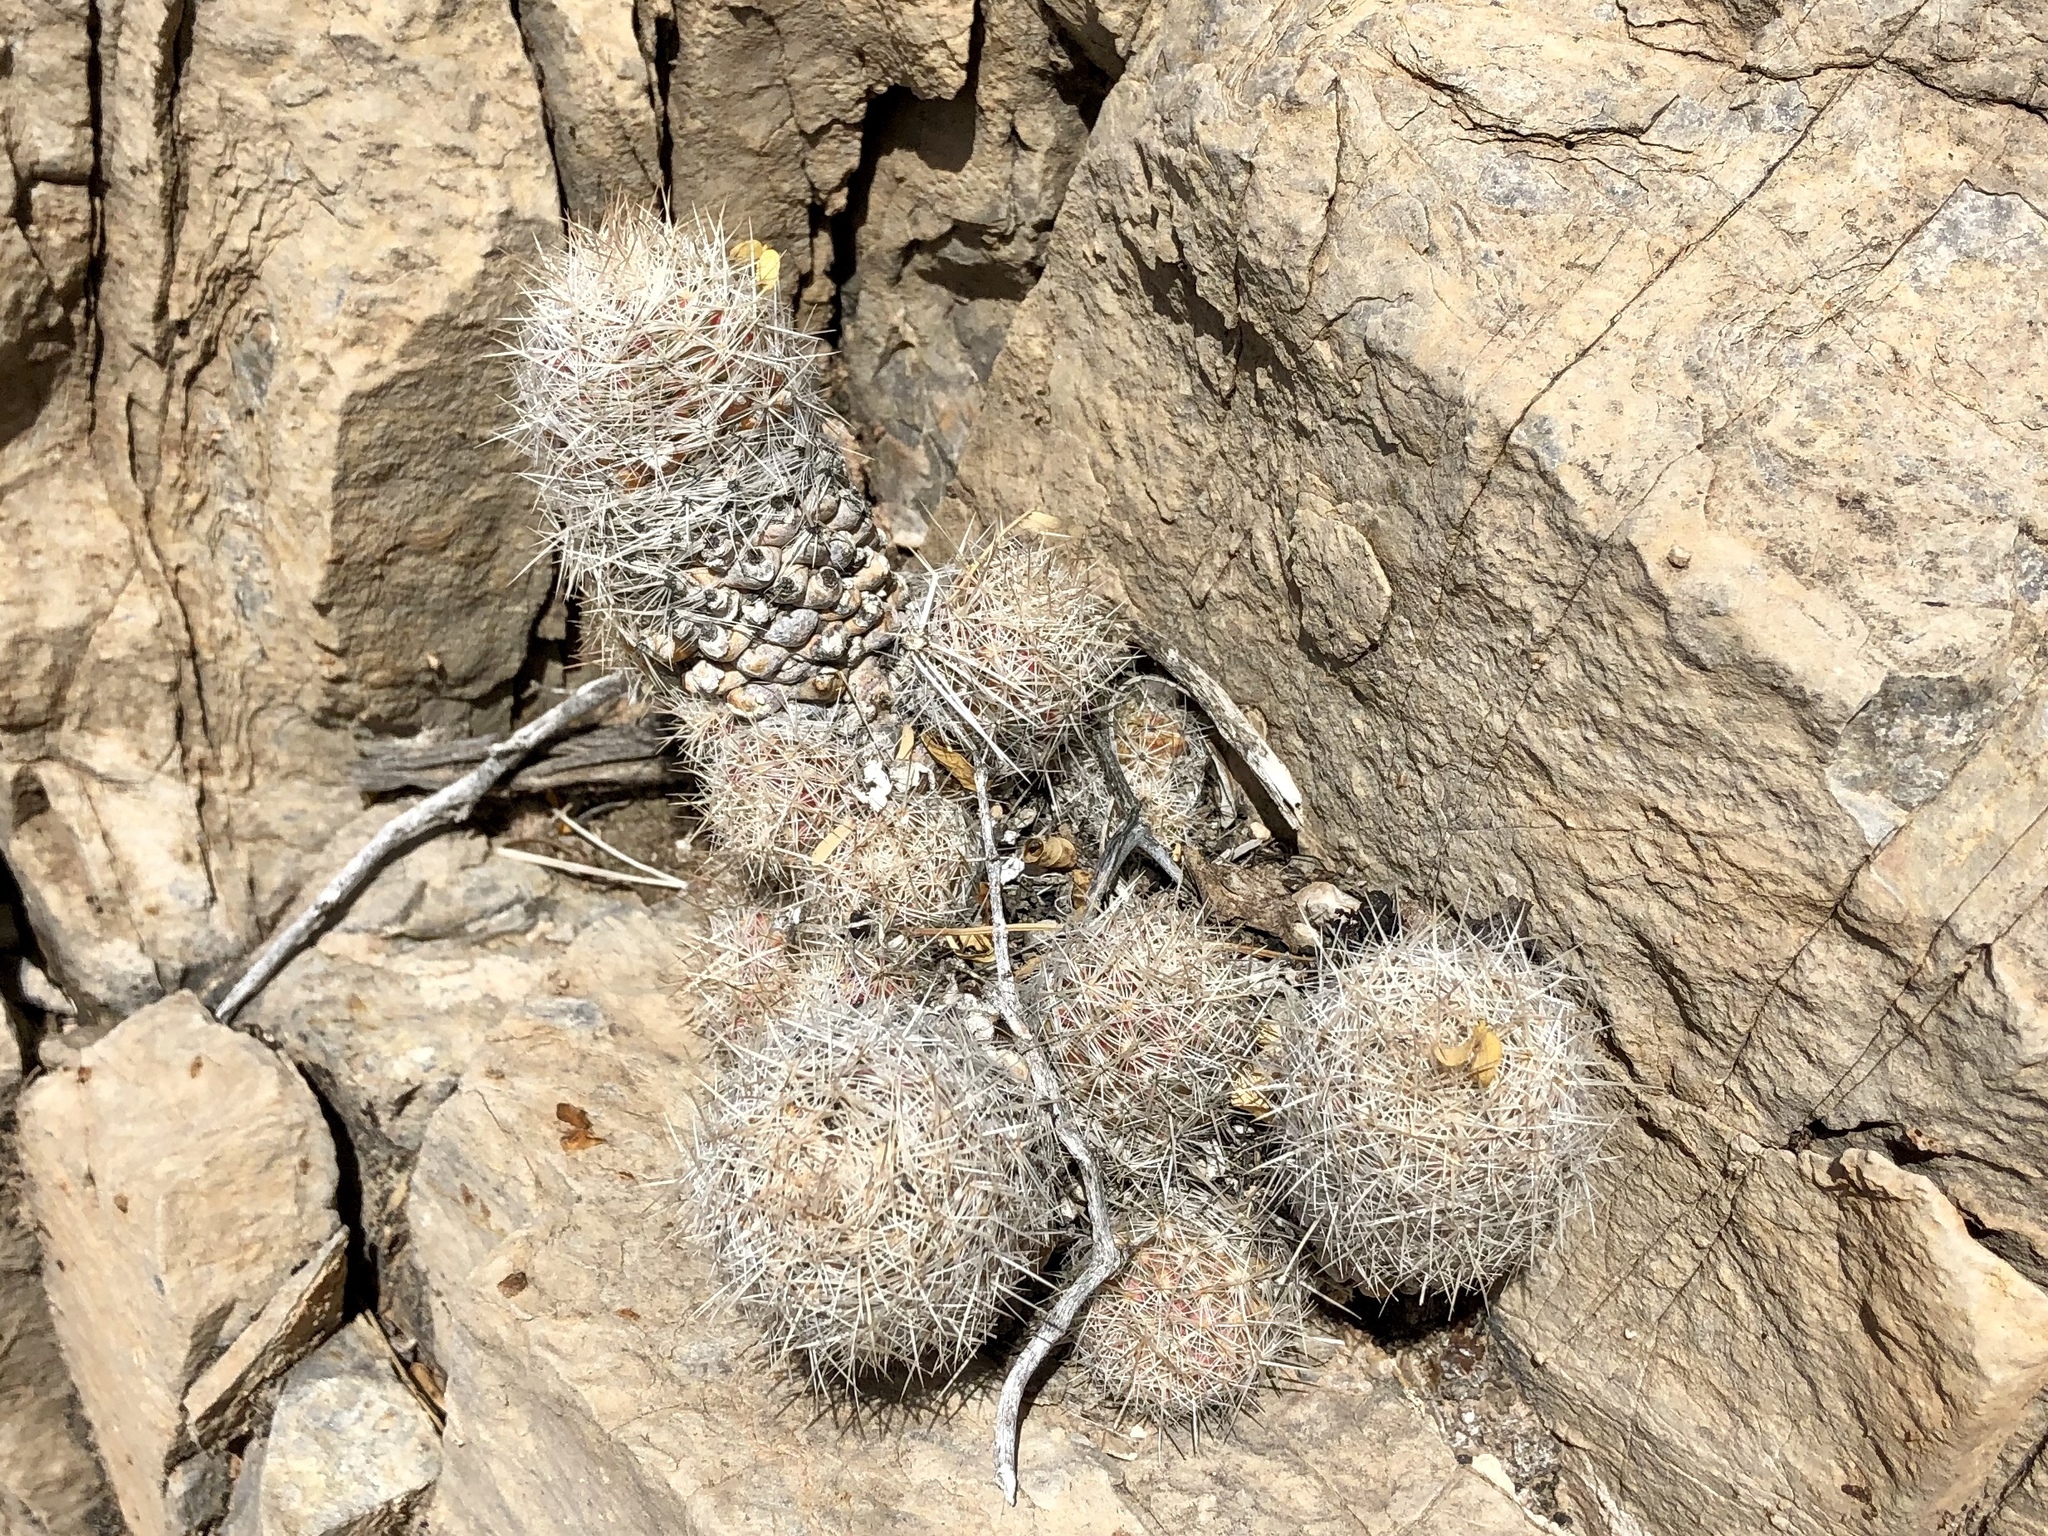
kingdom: Plantae
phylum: Tracheophyta
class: Magnoliopsida
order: Caryophyllales
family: Cactaceae
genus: Pelecyphora
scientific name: Pelecyphora tuberculosa
